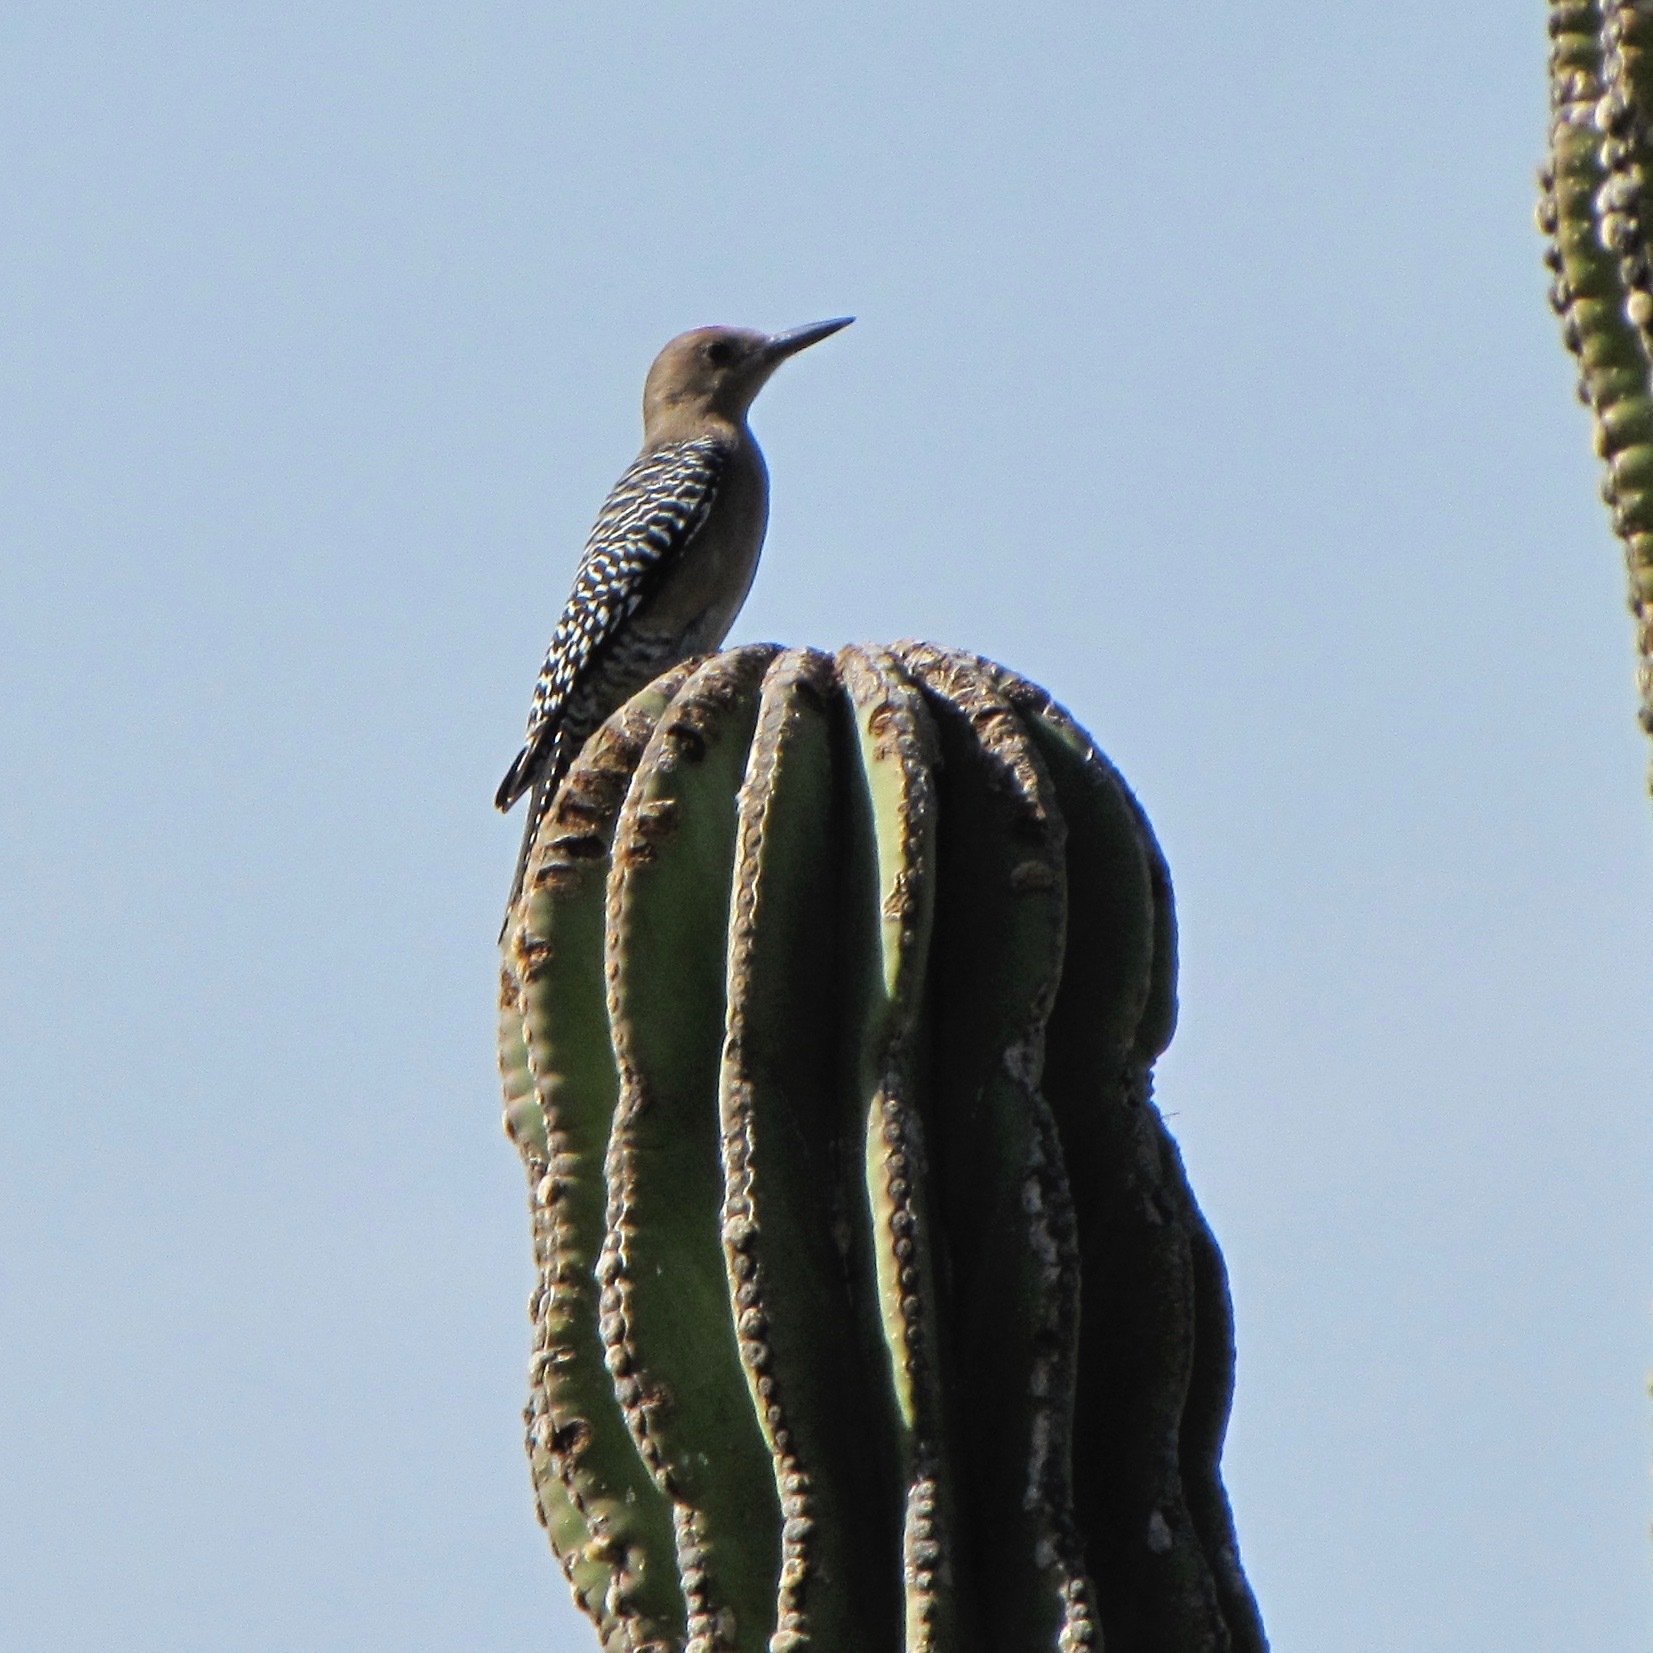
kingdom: Animalia
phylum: Chordata
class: Aves
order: Piciformes
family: Picidae
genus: Melanerpes
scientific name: Melanerpes uropygialis
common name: Gila woodpecker
